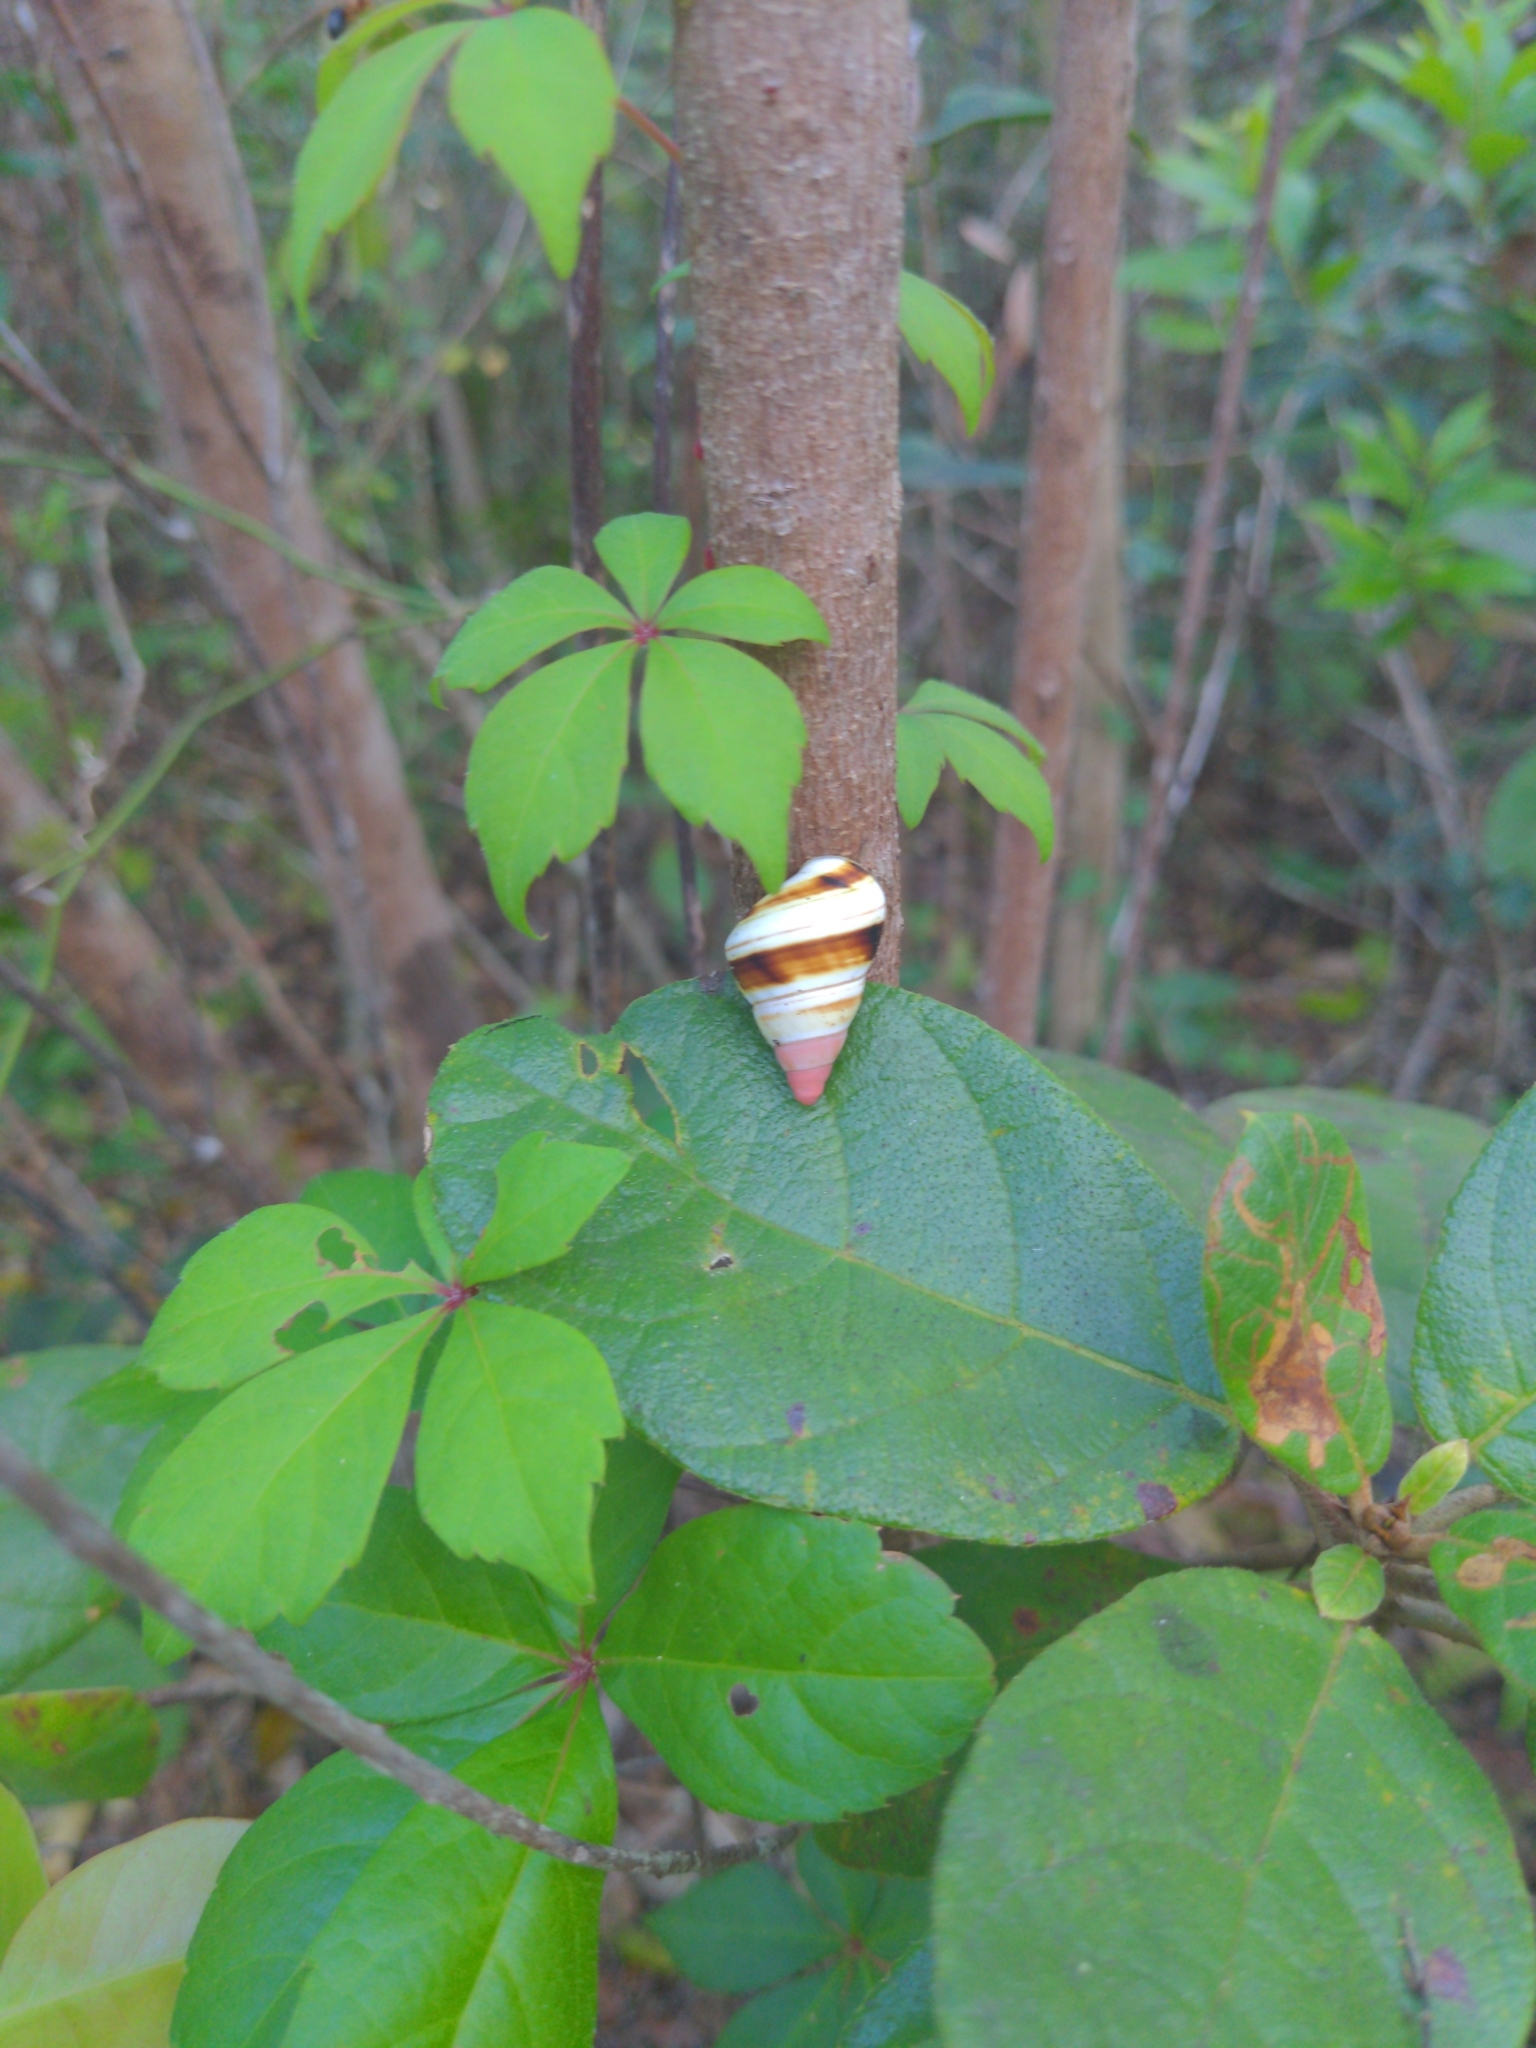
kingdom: Animalia
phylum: Mollusca
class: Gastropoda
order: Stylommatophora
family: Orthalicidae
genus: Liguus
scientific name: Liguus fasciatus
